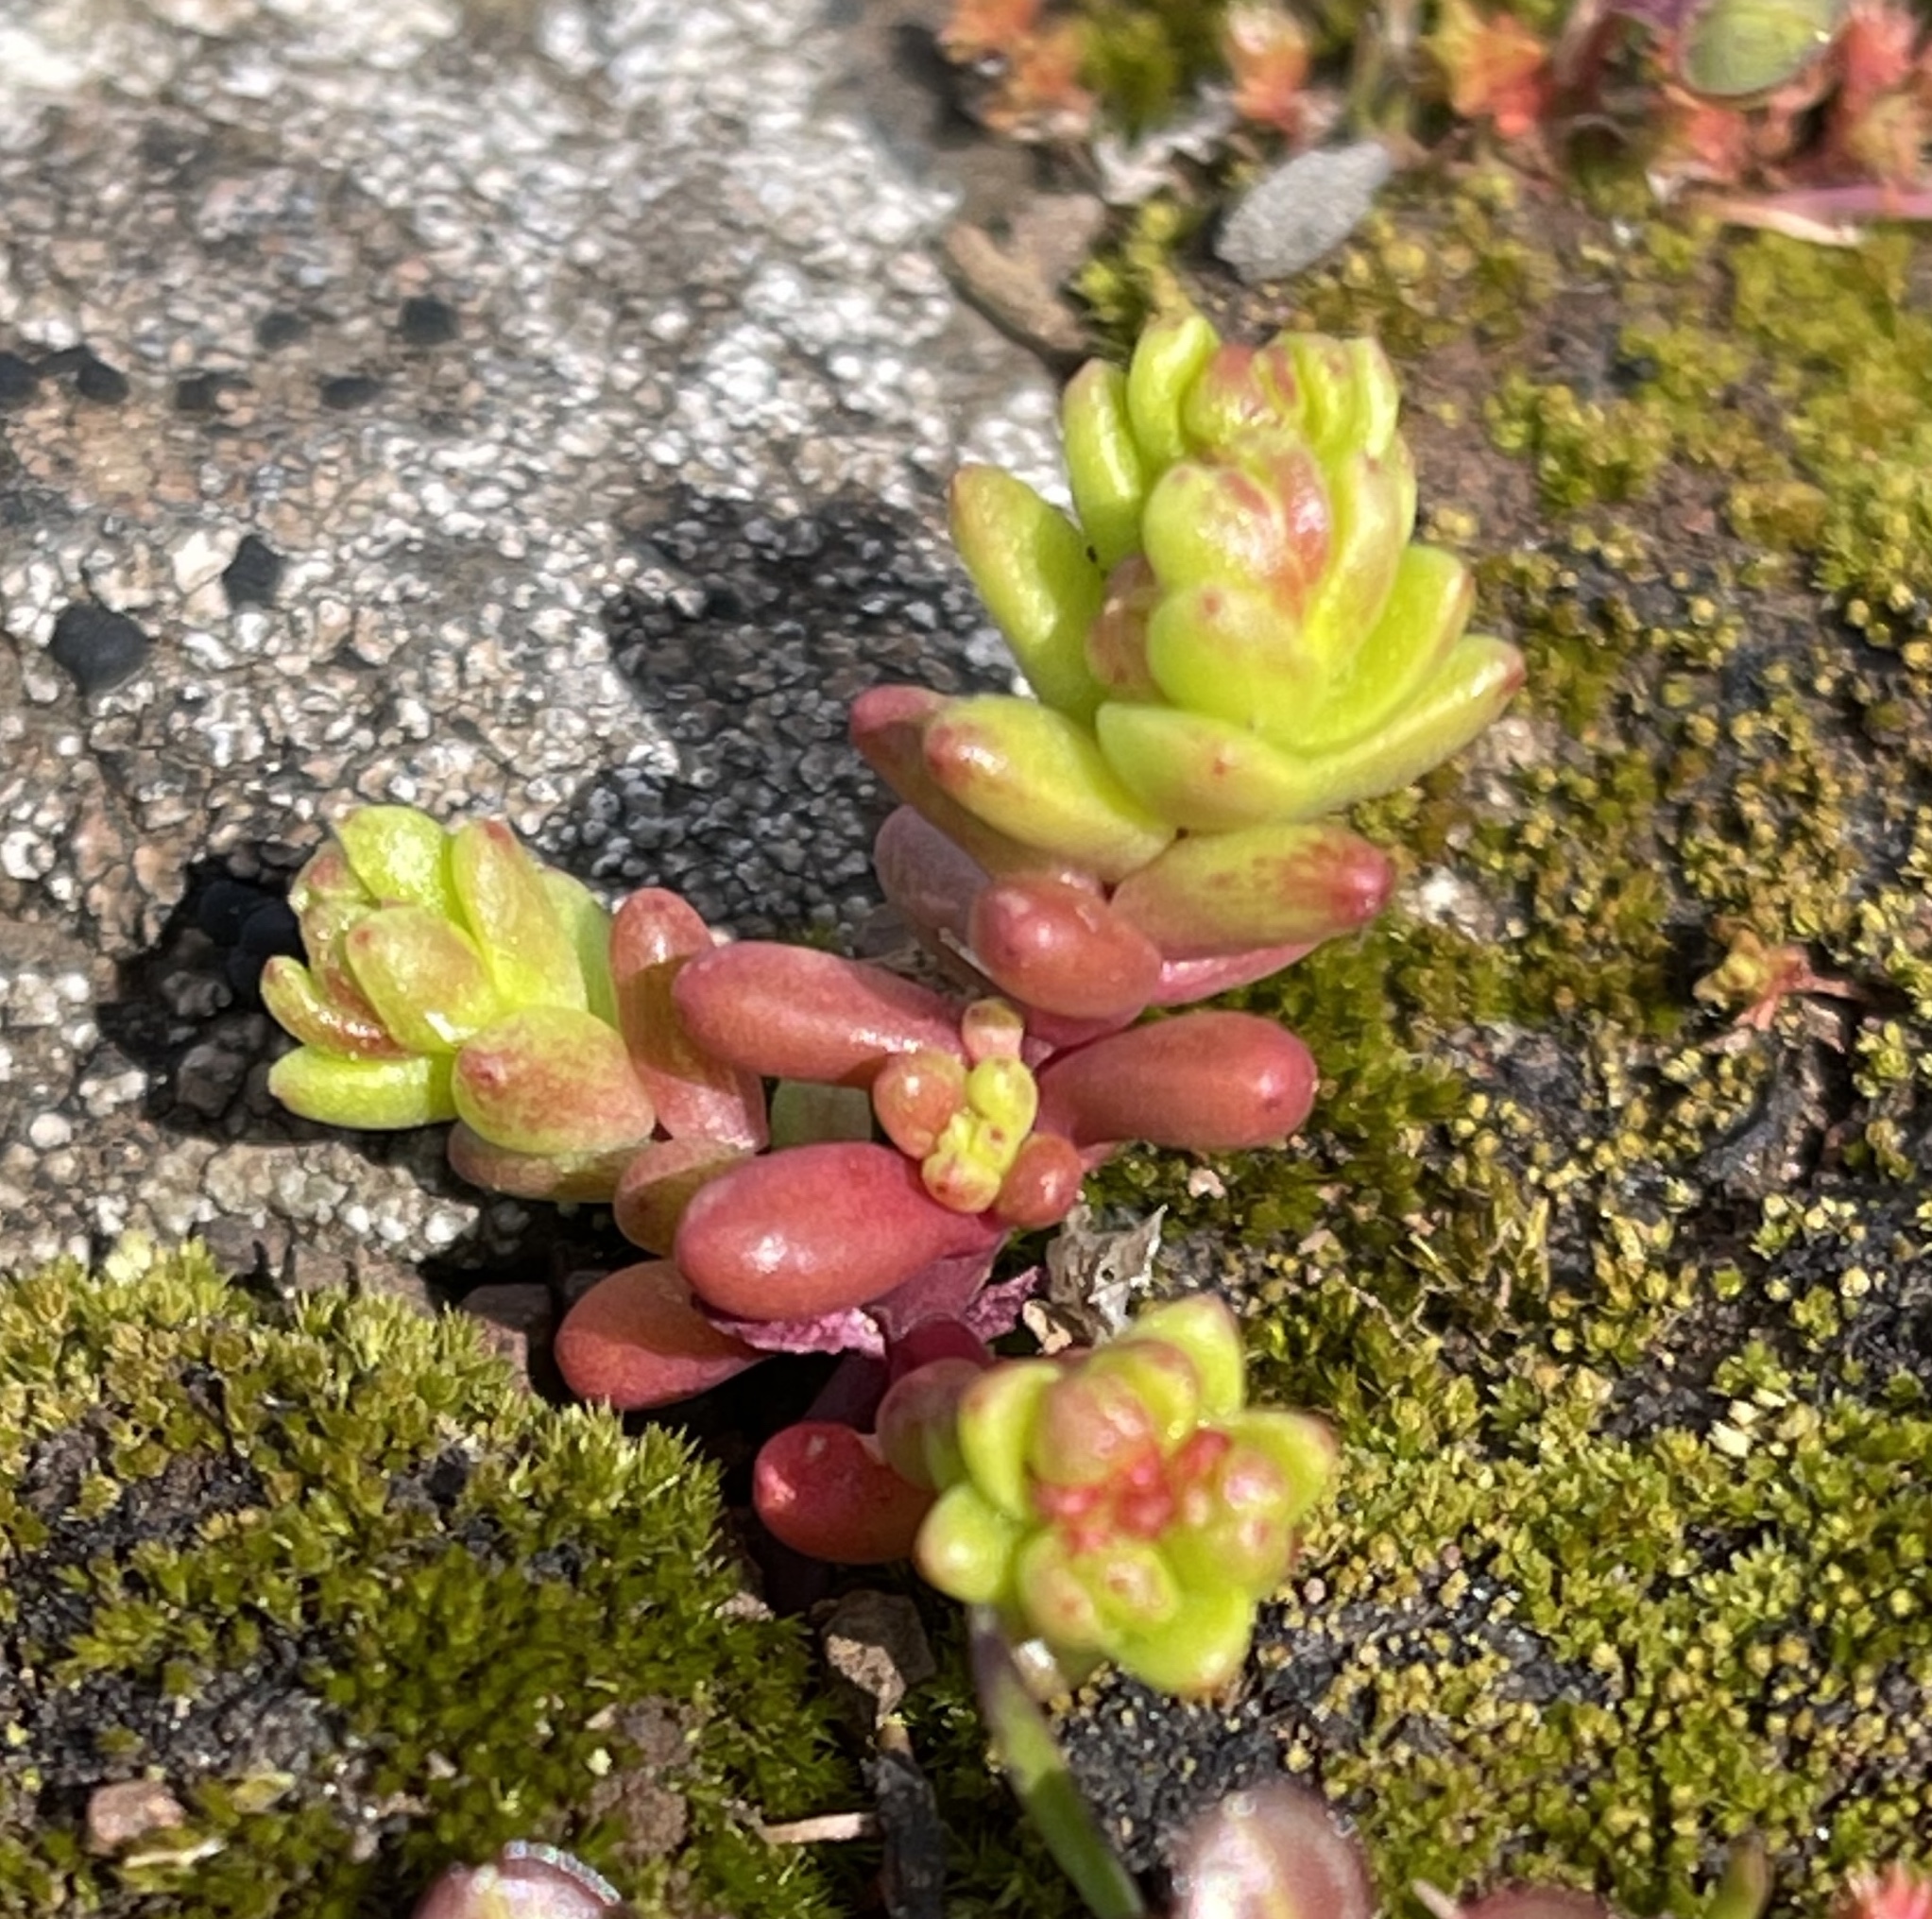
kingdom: Plantae
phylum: Tracheophyta
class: Magnoliopsida
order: Saxifragales
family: Crassulaceae
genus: Sedella
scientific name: Sedella pumila
